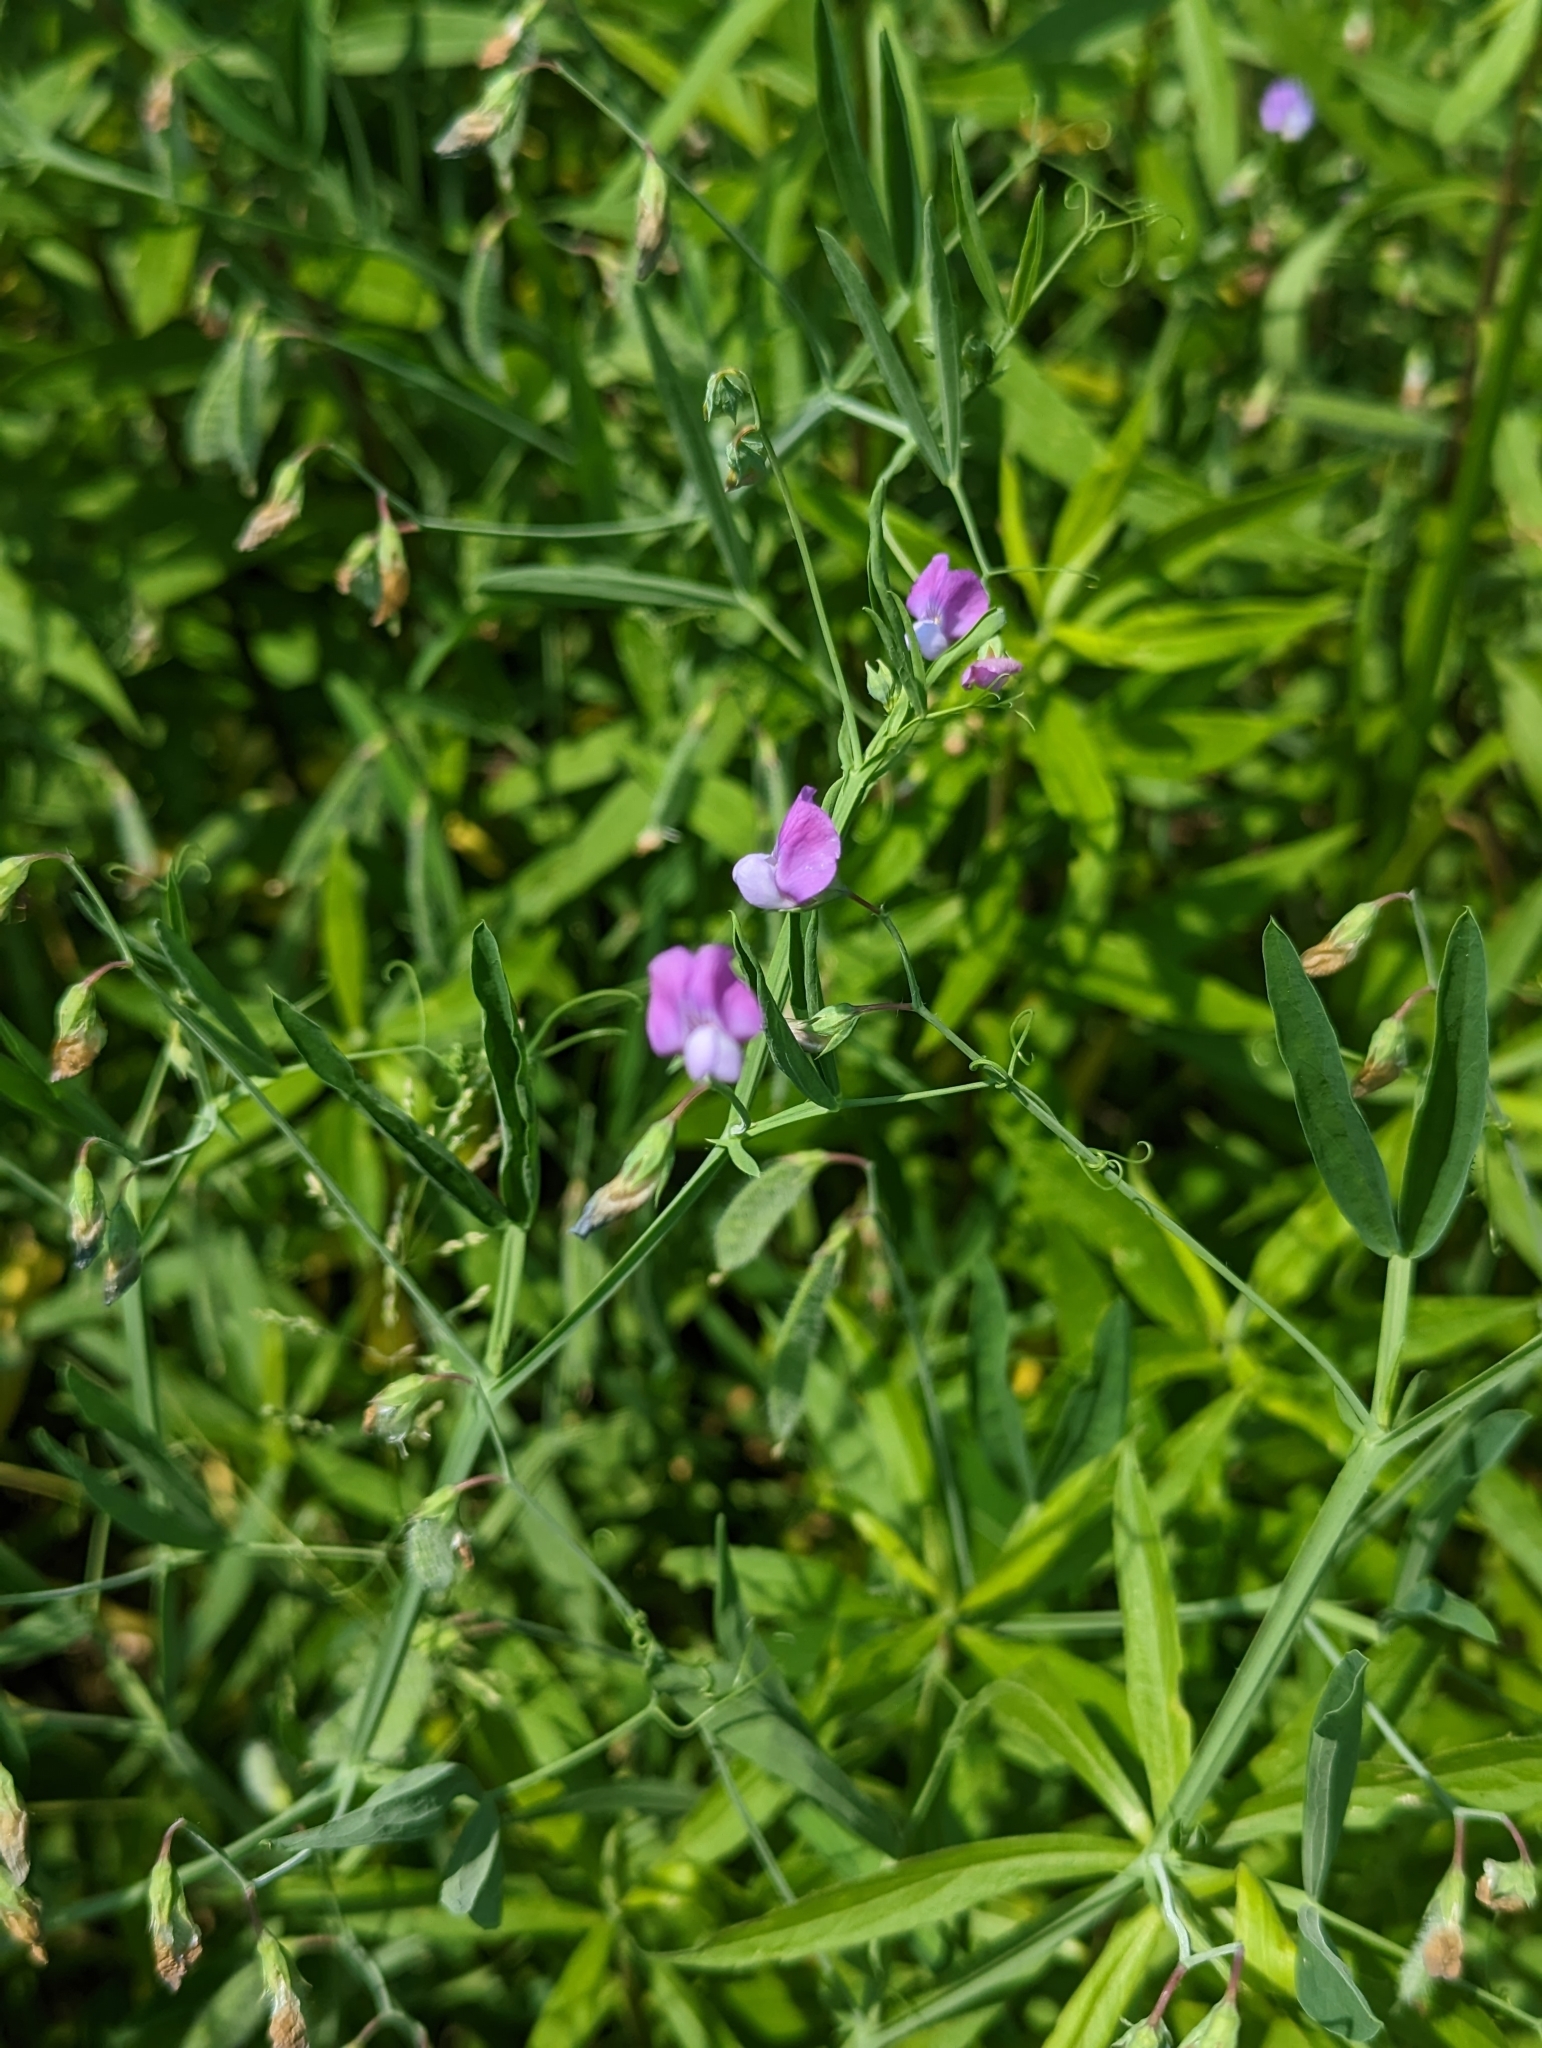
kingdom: Plantae
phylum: Tracheophyta
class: Magnoliopsida
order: Fabales
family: Fabaceae
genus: Lathyrus
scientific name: Lathyrus hirsutus
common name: Hairy vetchling
